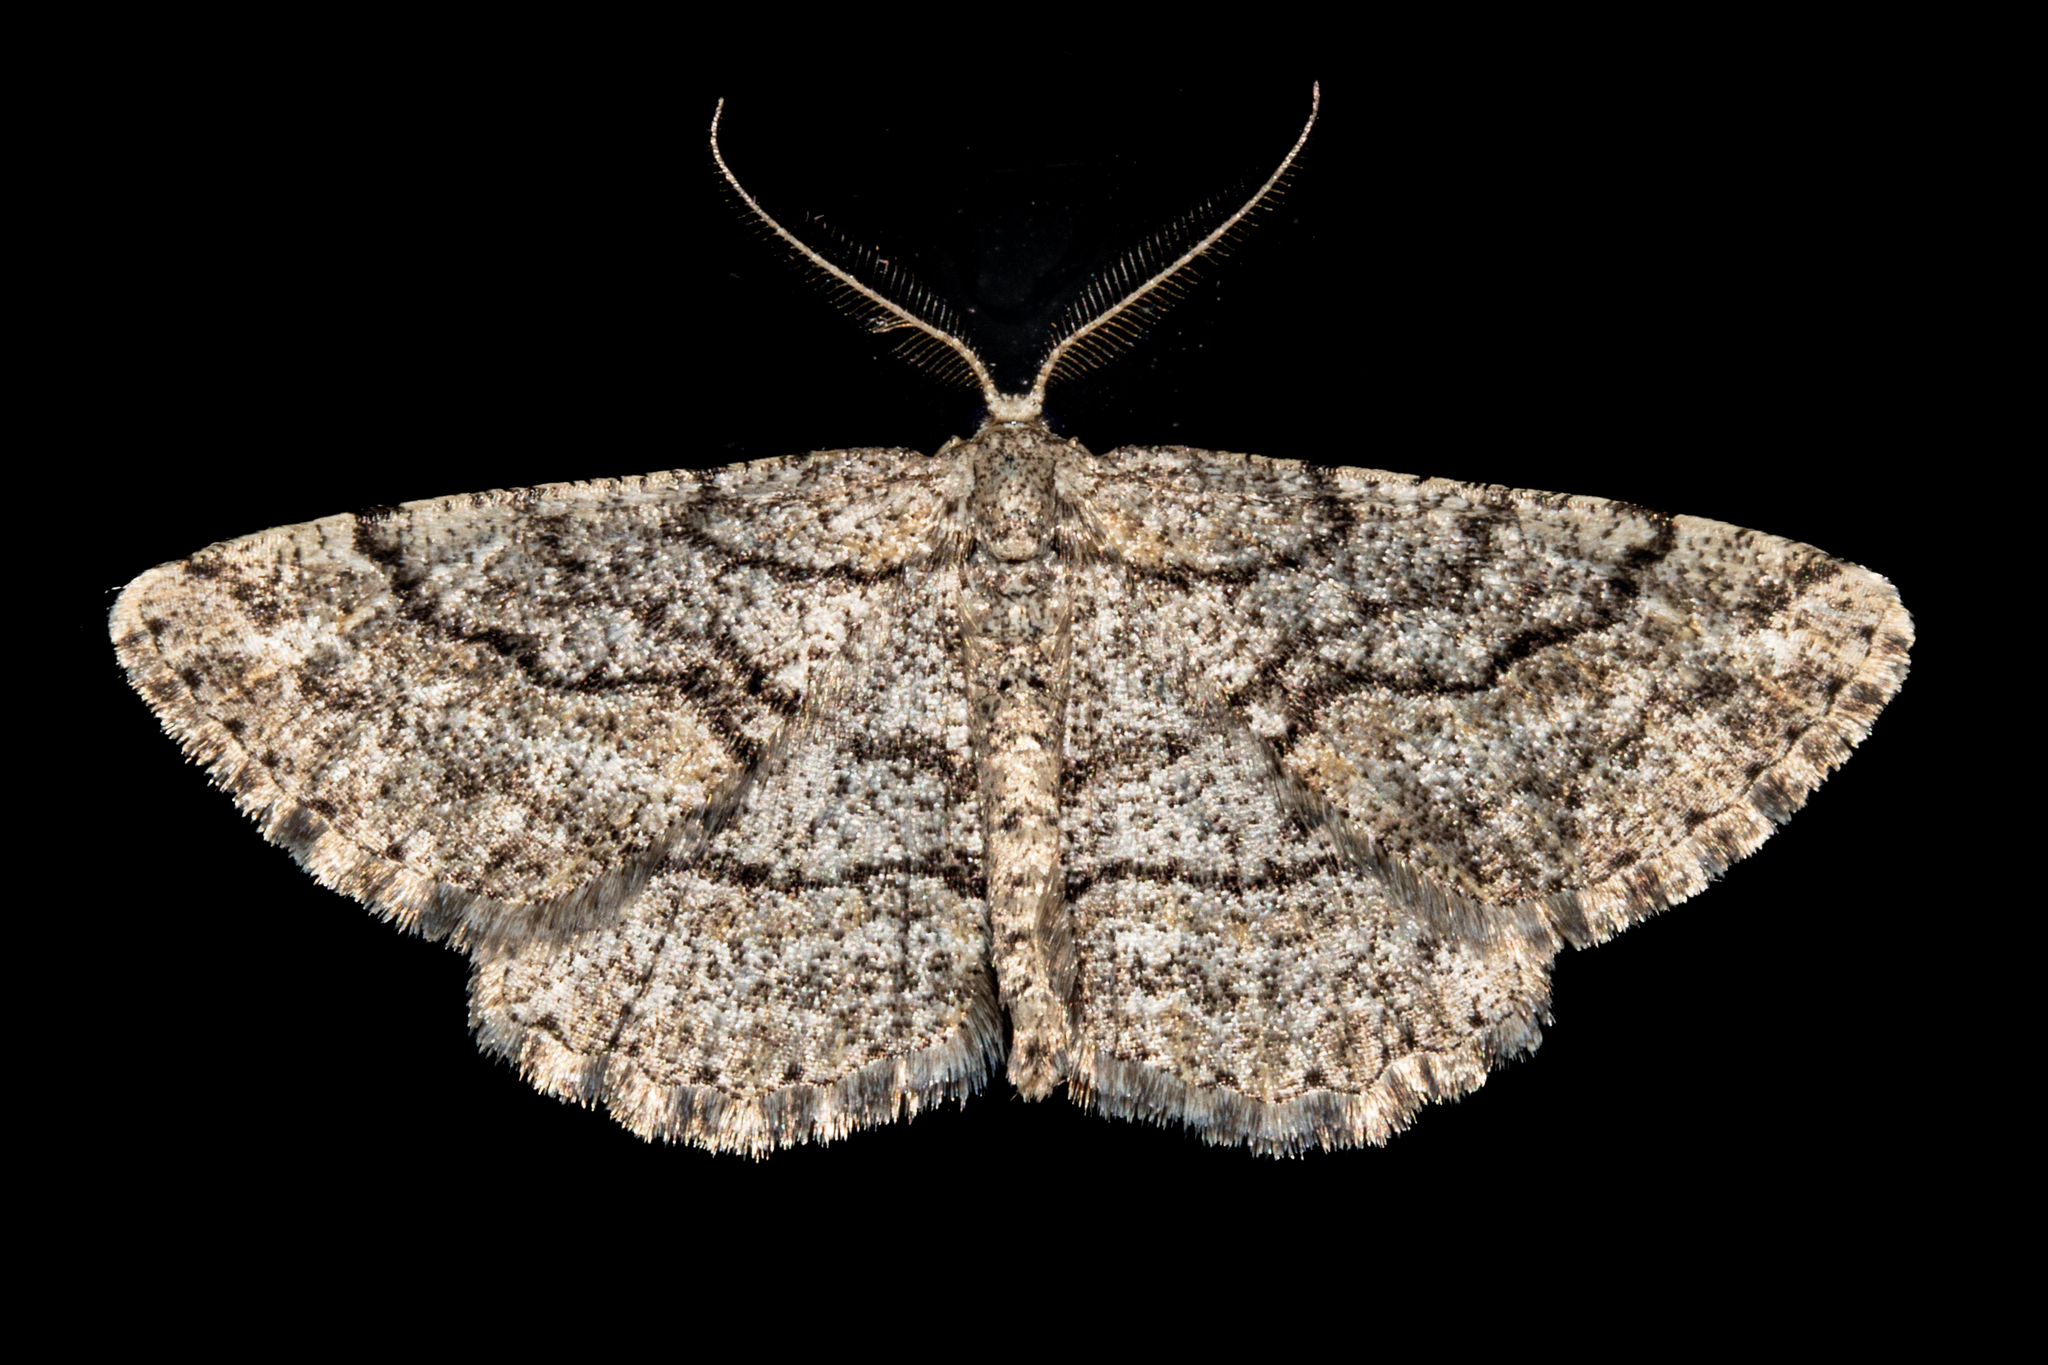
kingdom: Animalia
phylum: Arthropoda
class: Insecta
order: Lepidoptera
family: Geometridae
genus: Zermizinga
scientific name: Zermizinga indocilisaria
